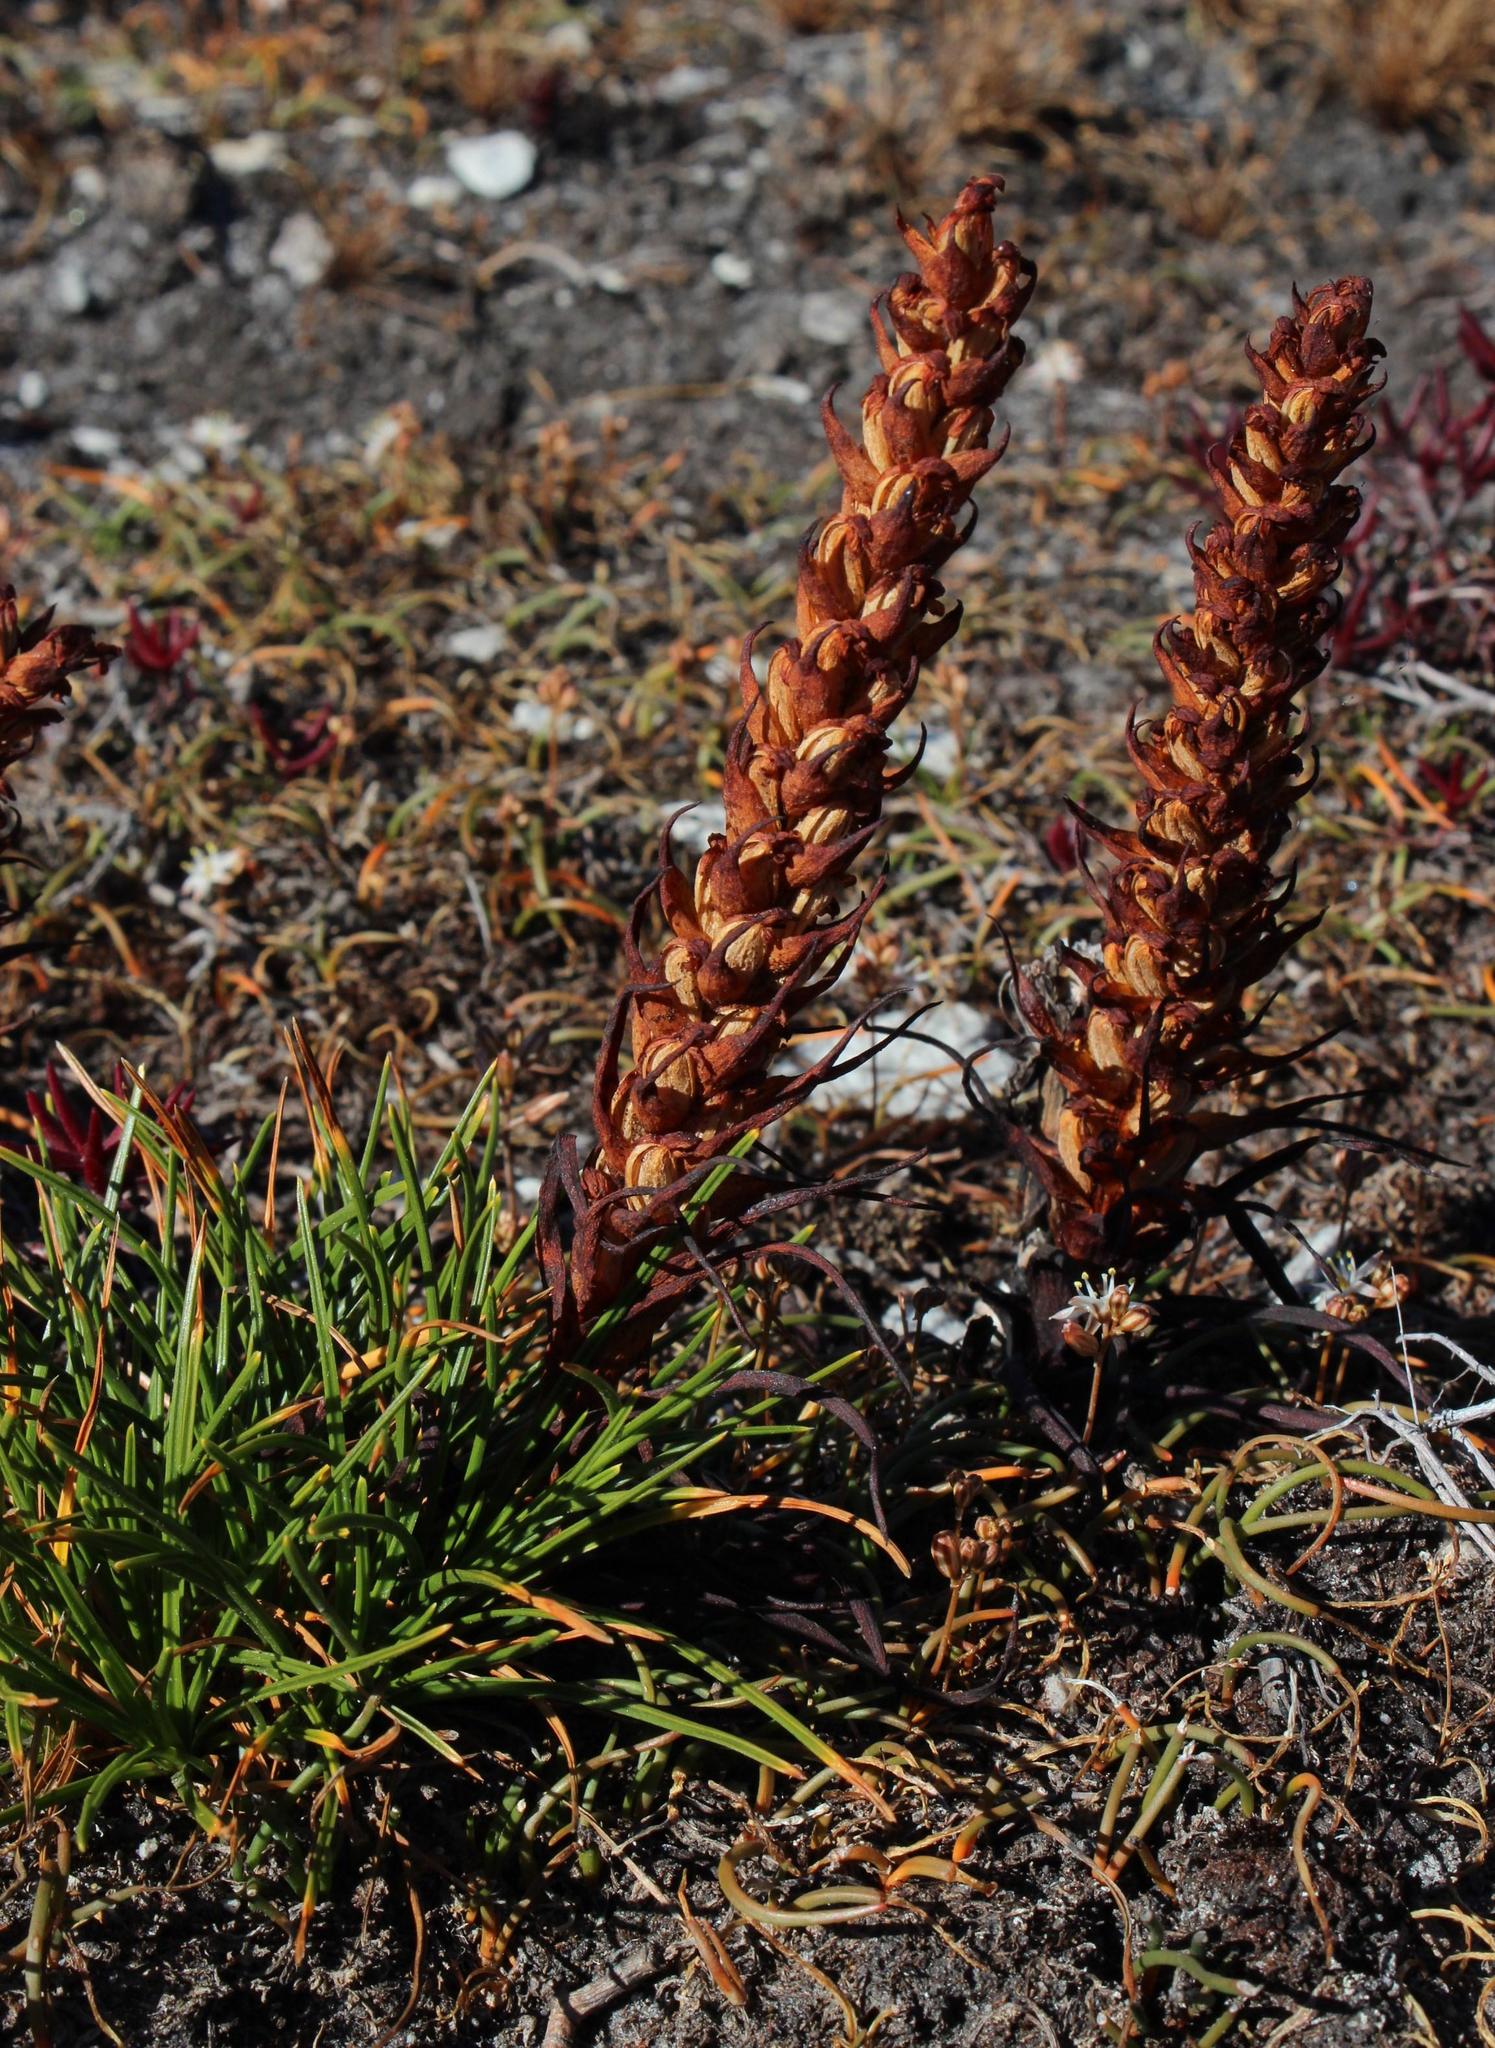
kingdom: Plantae
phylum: Tracheophyta
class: Liliopsida
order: Asparagales
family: Orchidaceae
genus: Disa
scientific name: Disa bracteata
